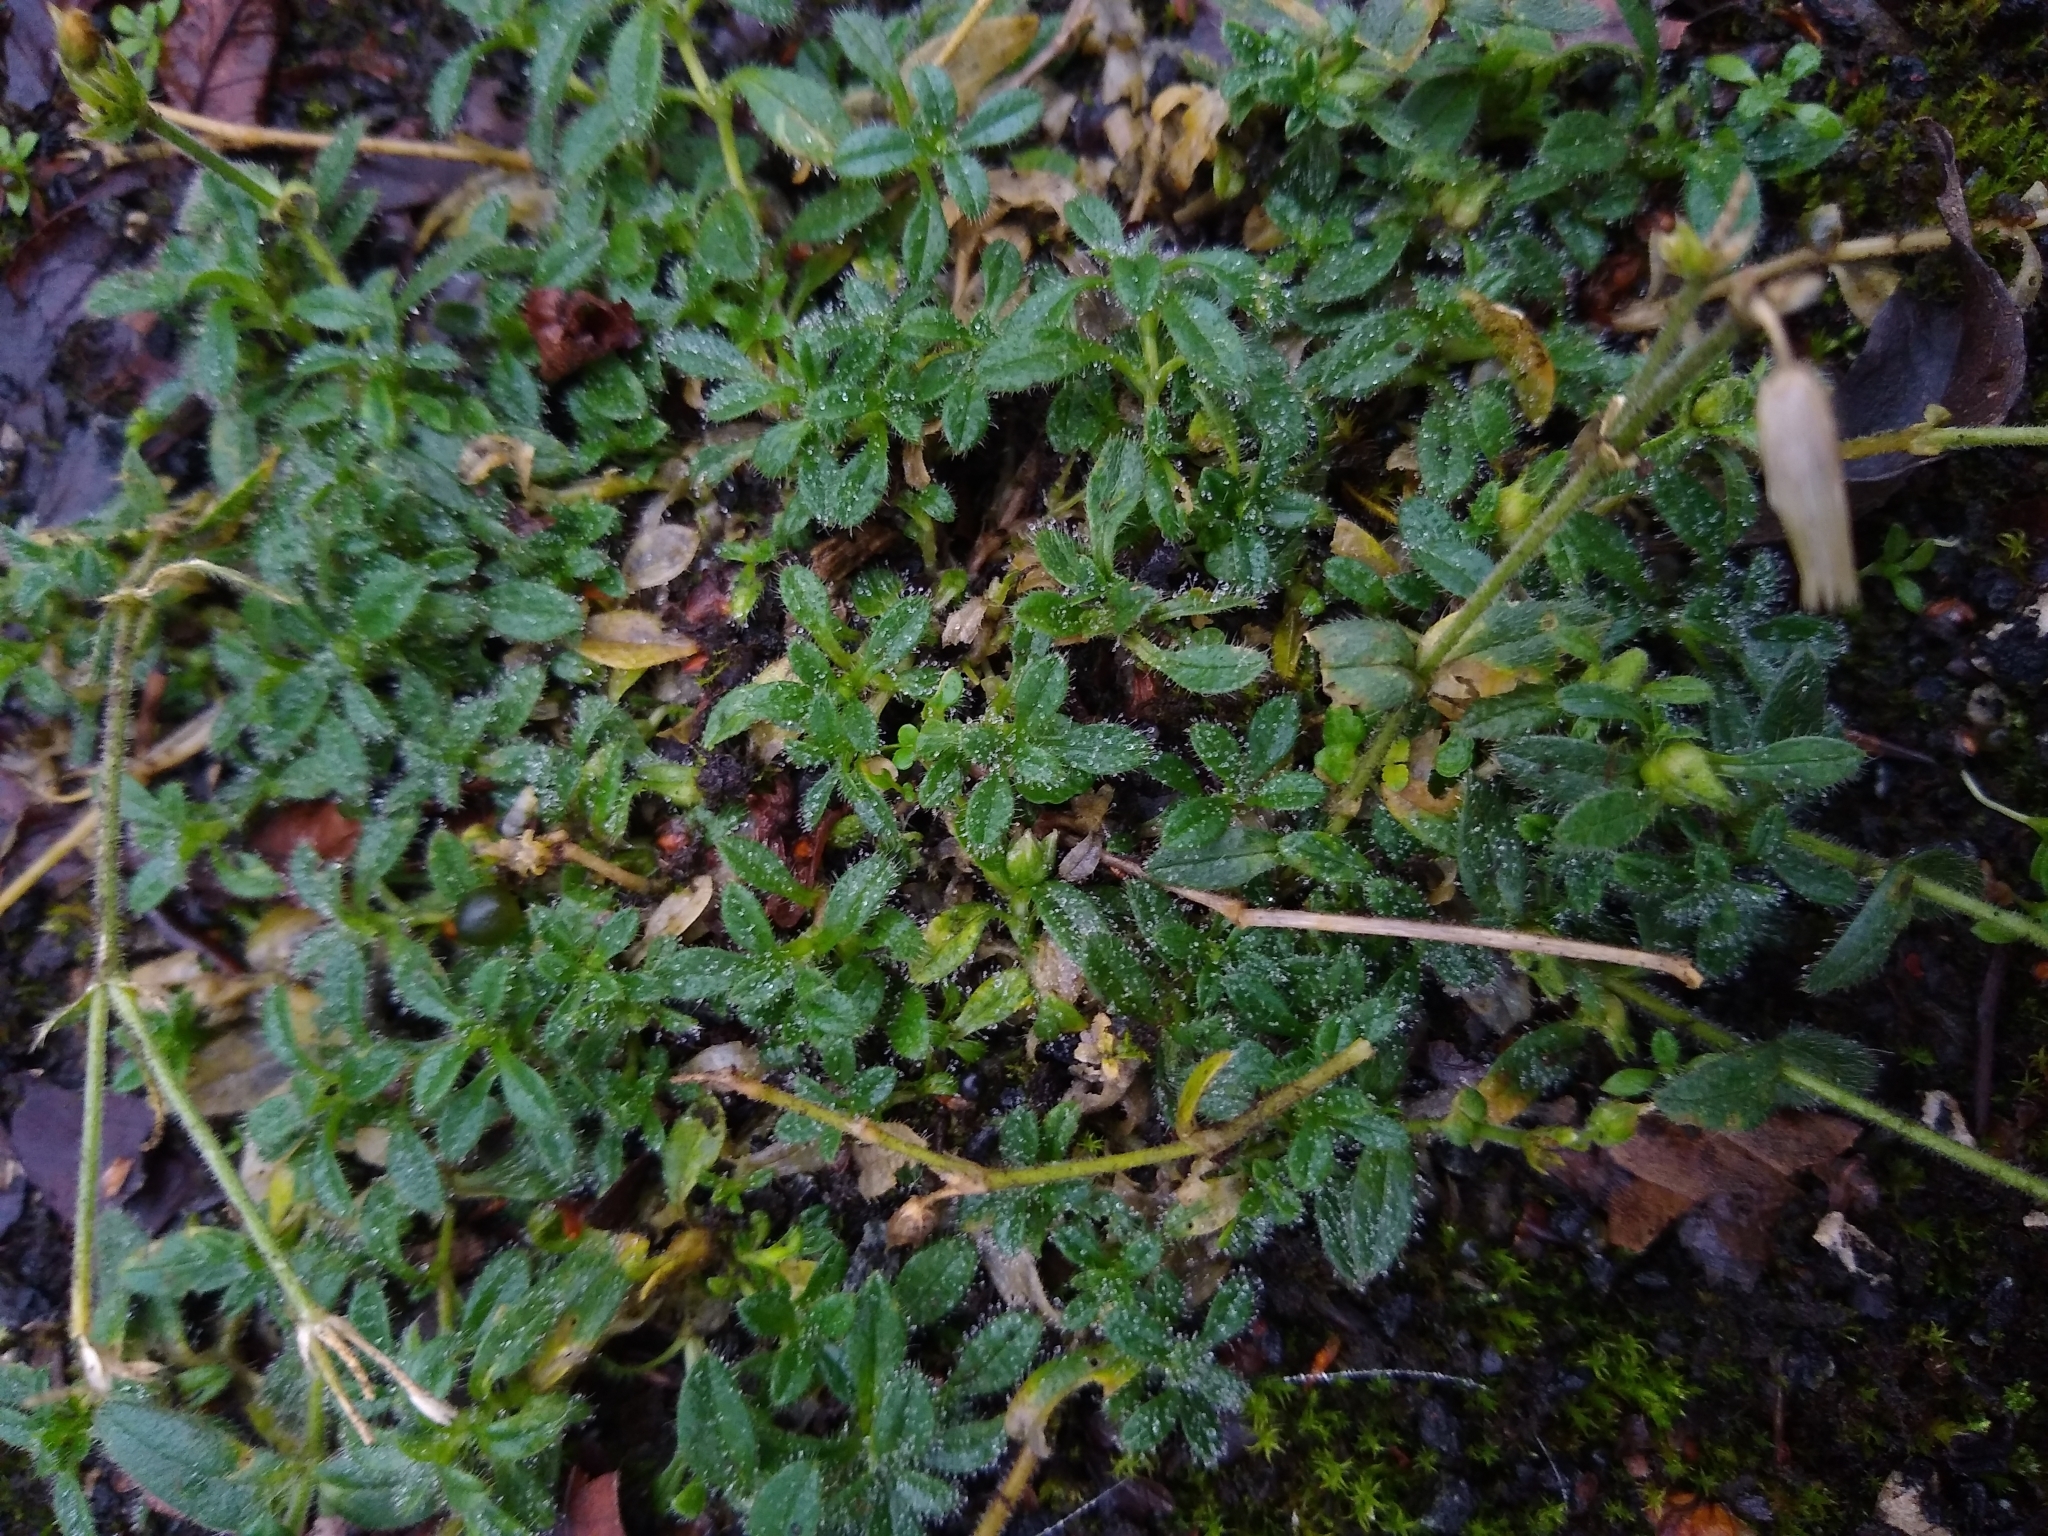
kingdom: Plantae
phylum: Tracheophyta
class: Magnoliopsida
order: Caryophyllales
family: Caryophyllaceae
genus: Cerastium
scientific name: Cerastium fontanum
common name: Common mouse-ear
